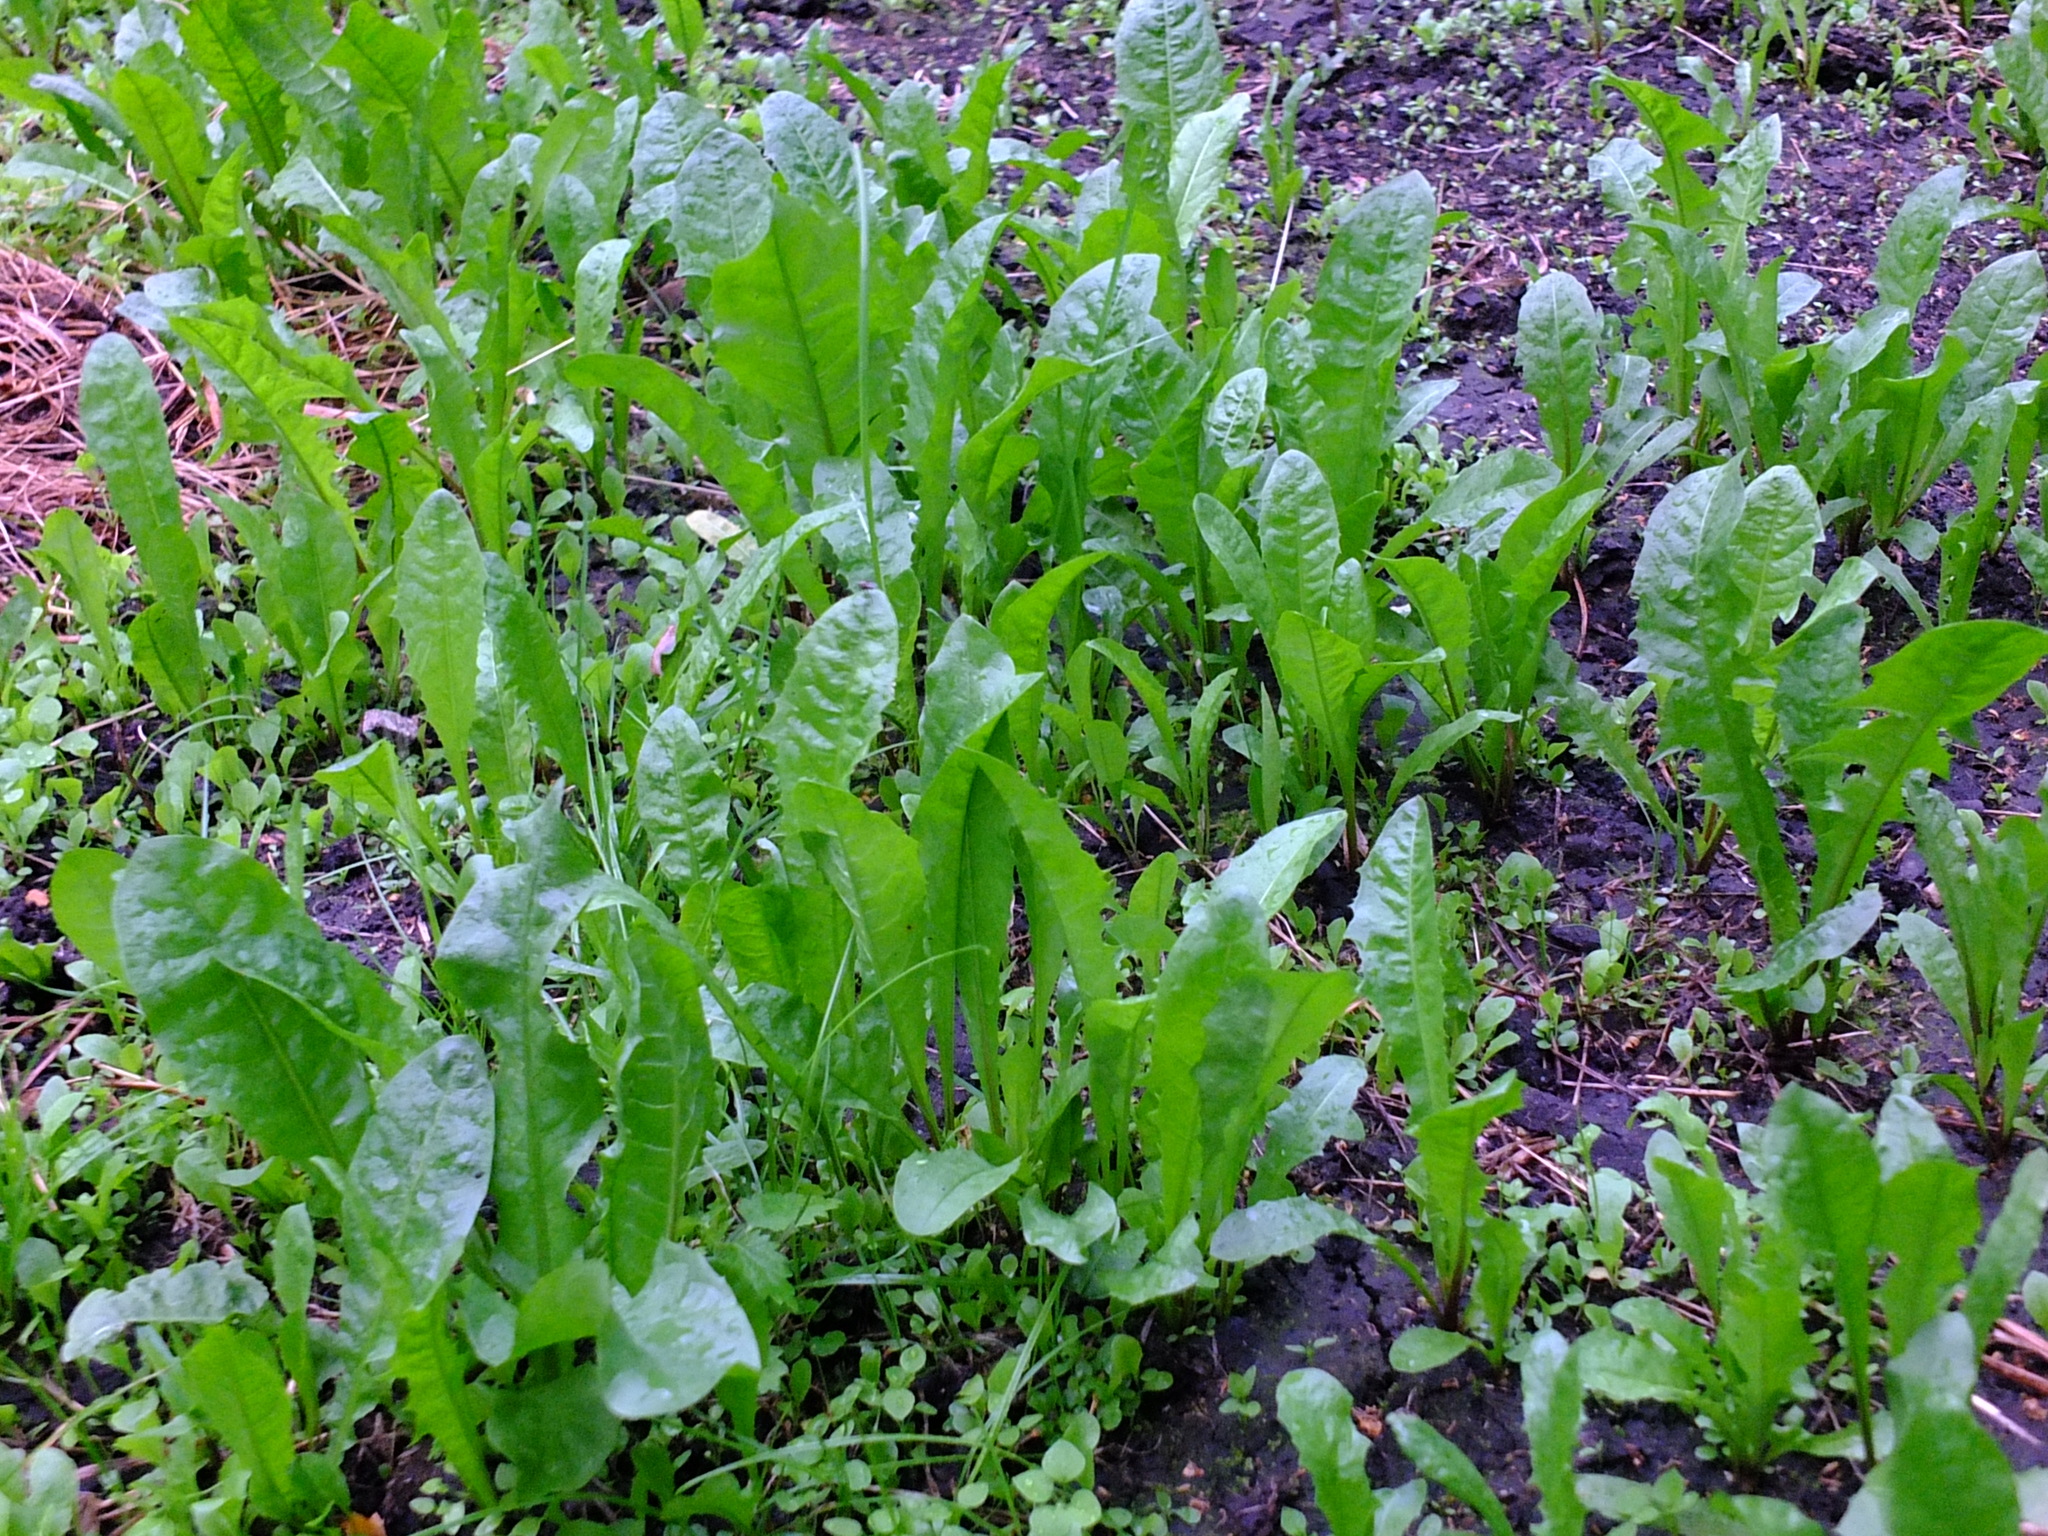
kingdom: Plantae
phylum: Tracheophyta
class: Magnoliopsida
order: Asterales
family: Asteraceae
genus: Taraxacum
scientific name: Taraxacum officinale
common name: Common dandelion
